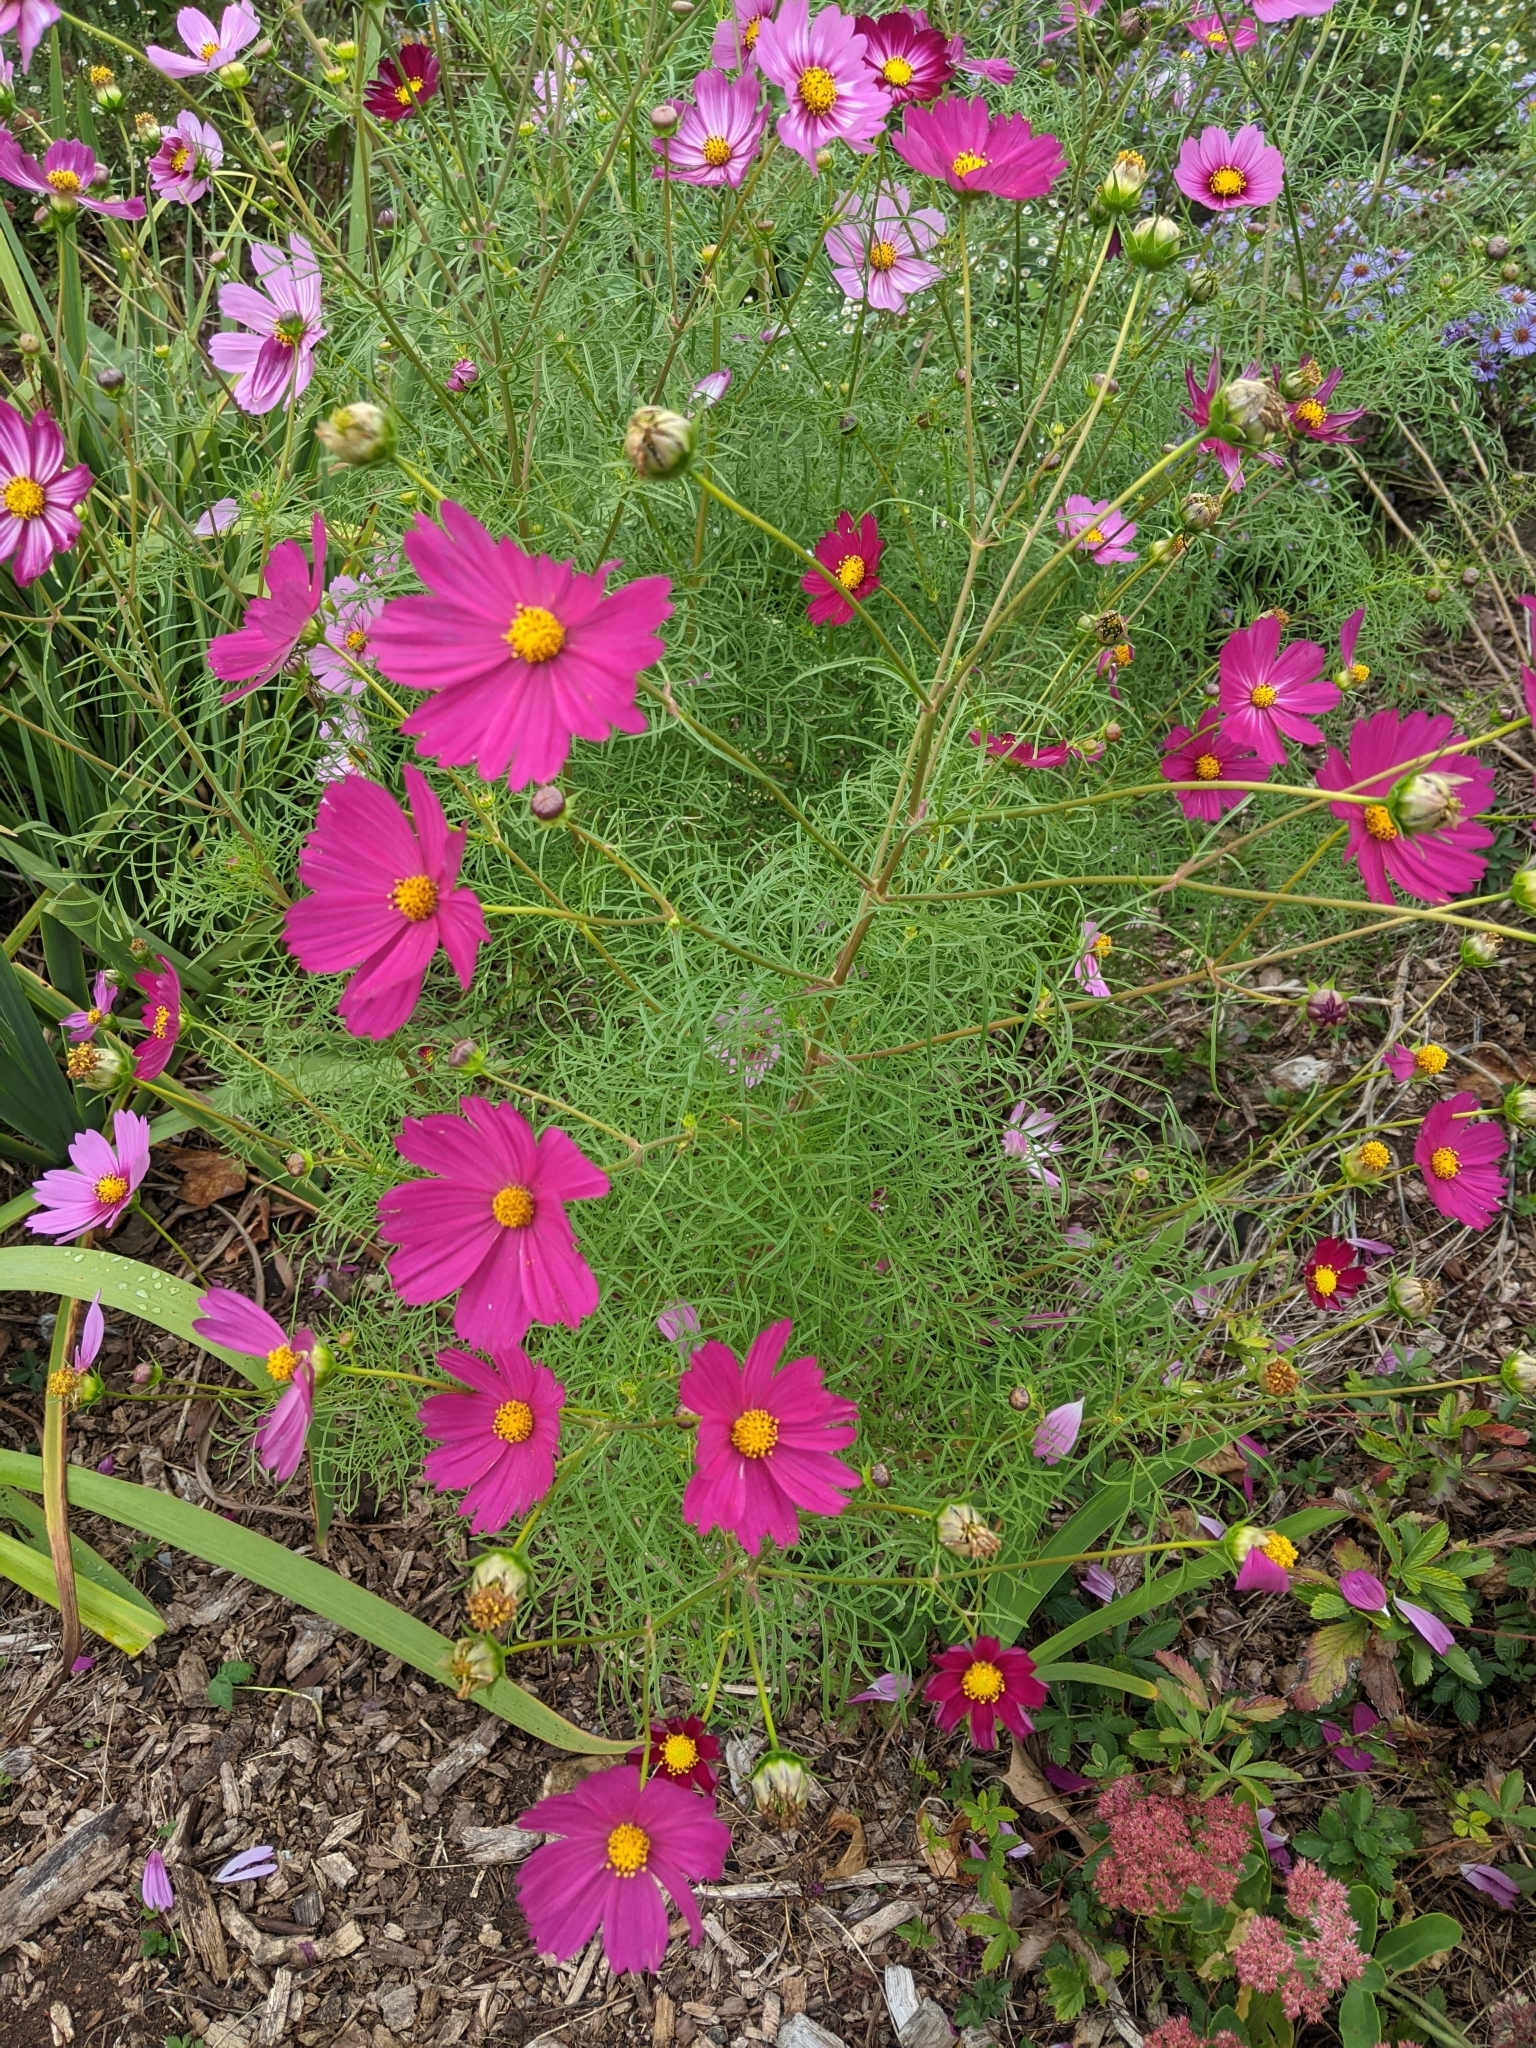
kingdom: Plantae
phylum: Tracheophyta
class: Magnoliopsida
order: Asterales
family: Asteraceae
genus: Cosmos
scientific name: Cosmos bipinnatus
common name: Garden cosmos
